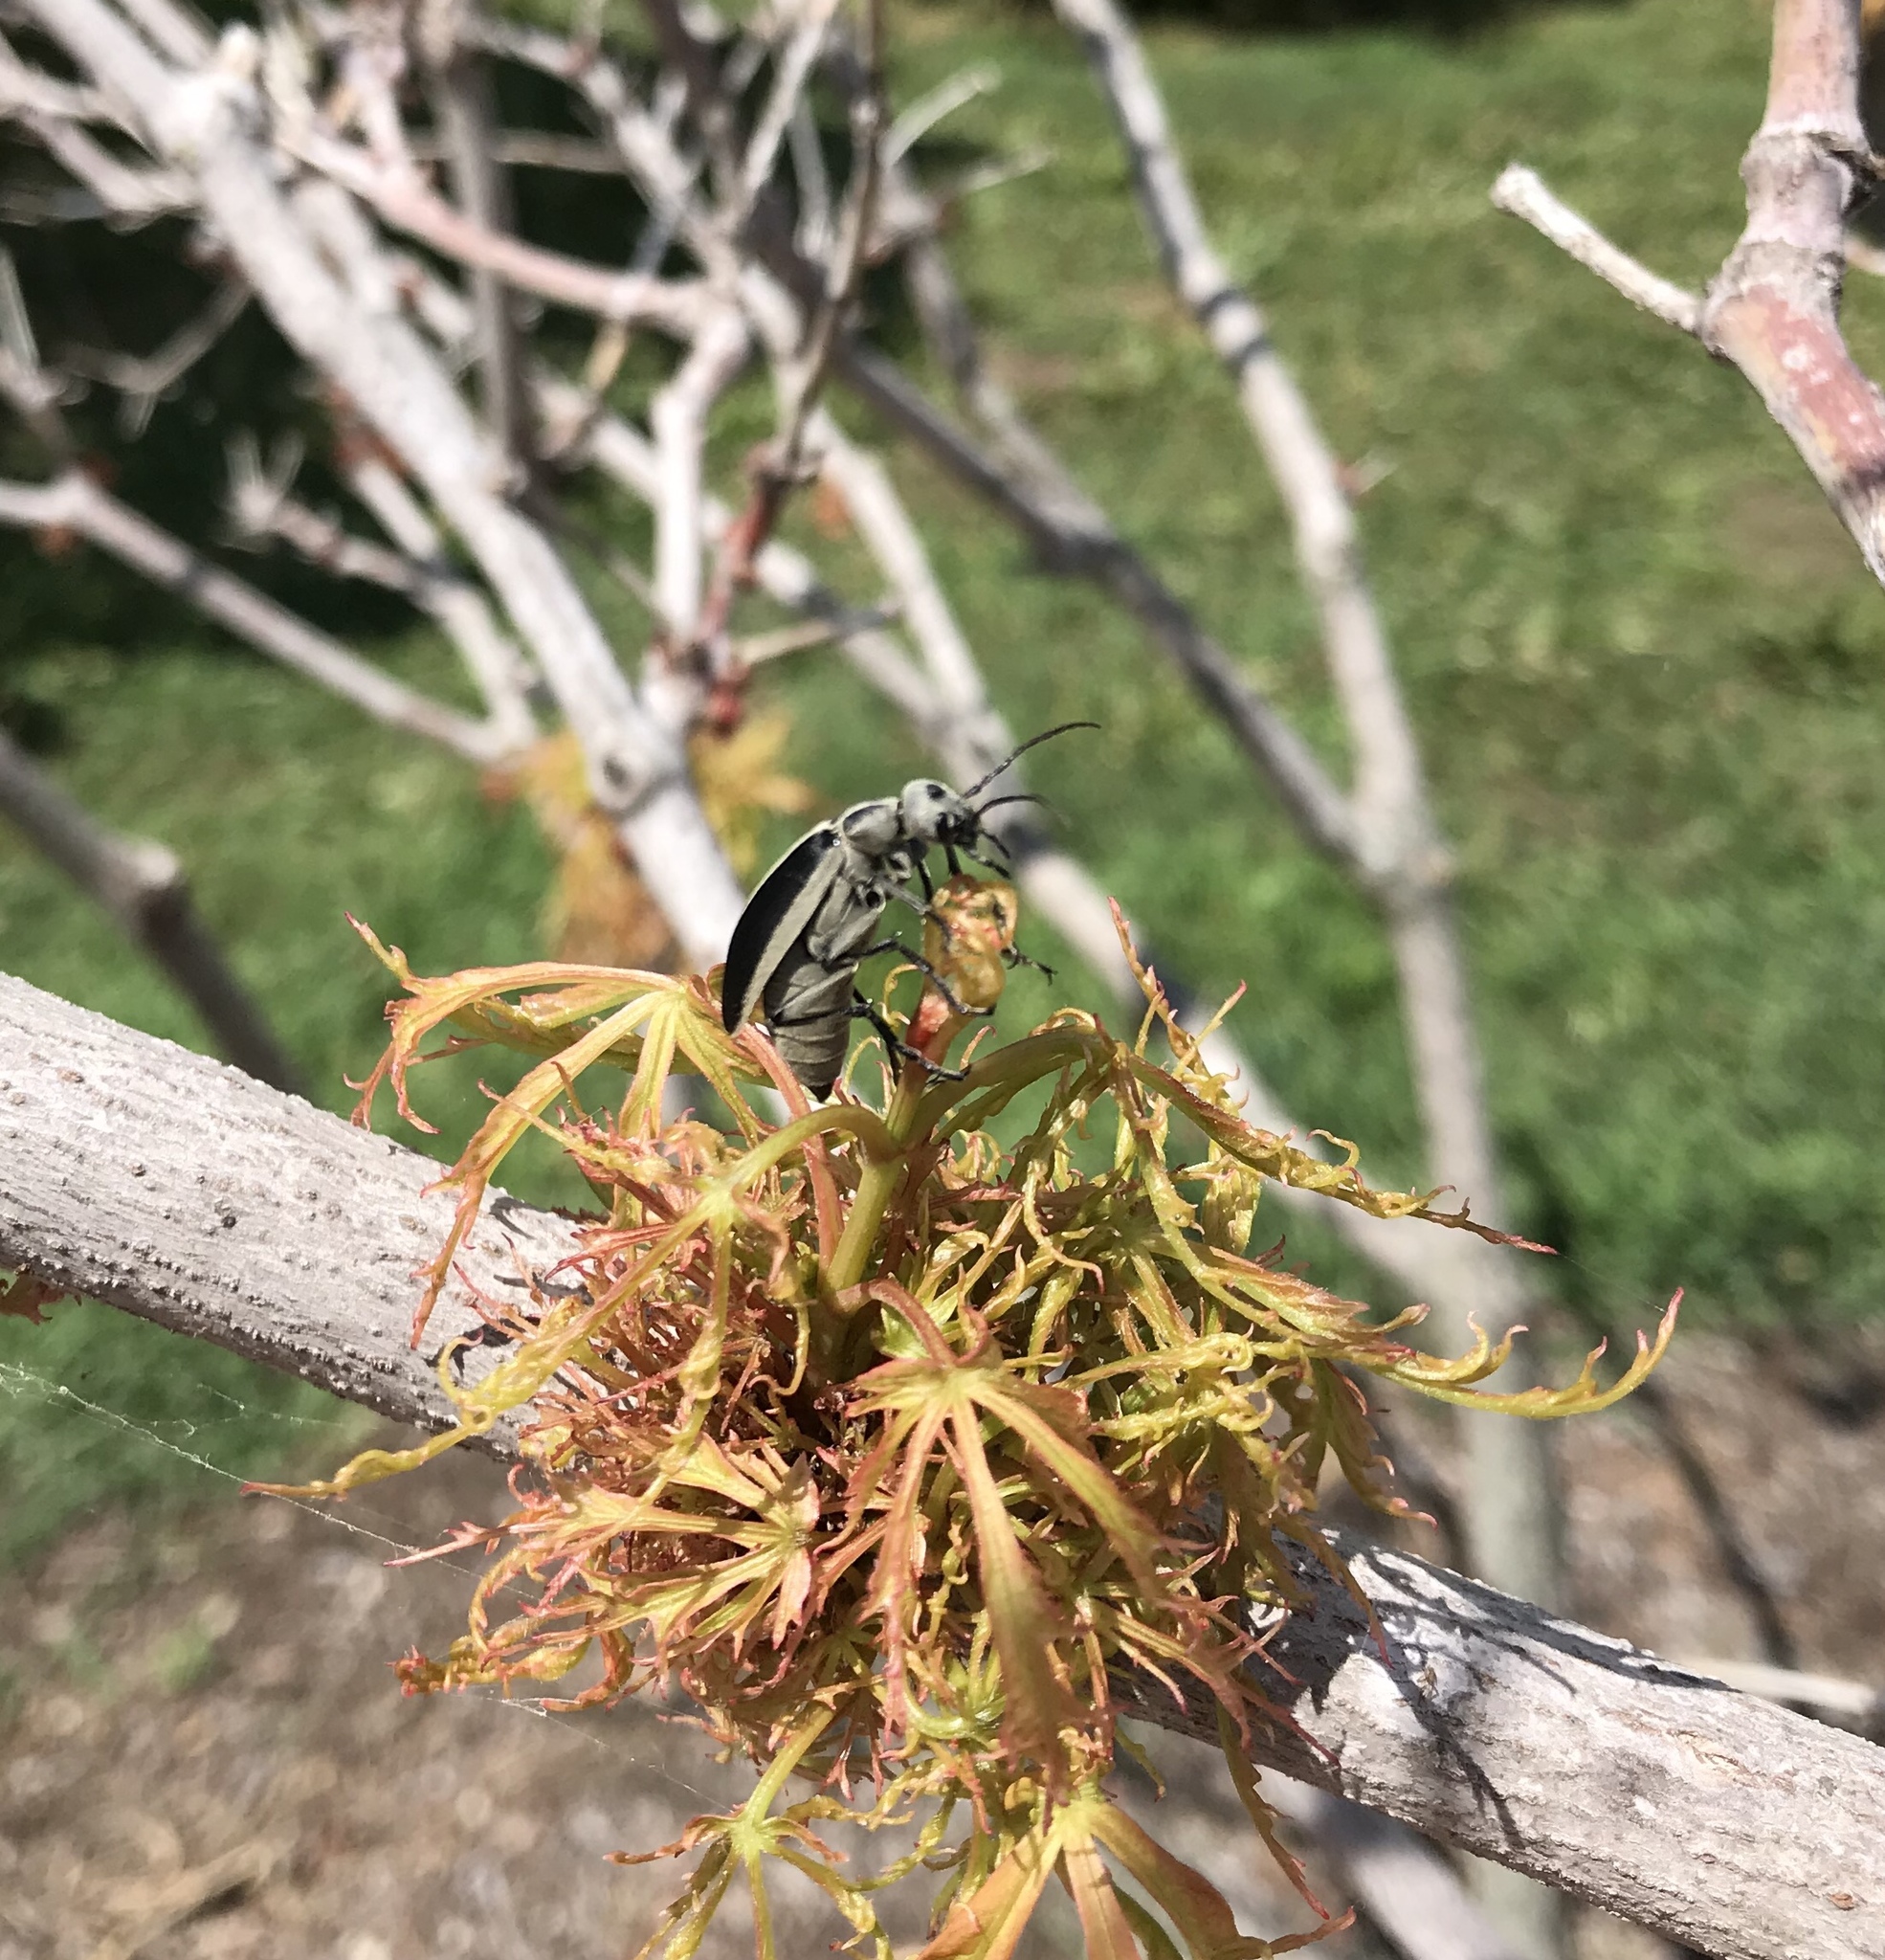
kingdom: Animalia
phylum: Arthropoda
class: Insecta
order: Coleoptera
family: Meloidae
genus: Epicauta
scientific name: Epicauta funebris
